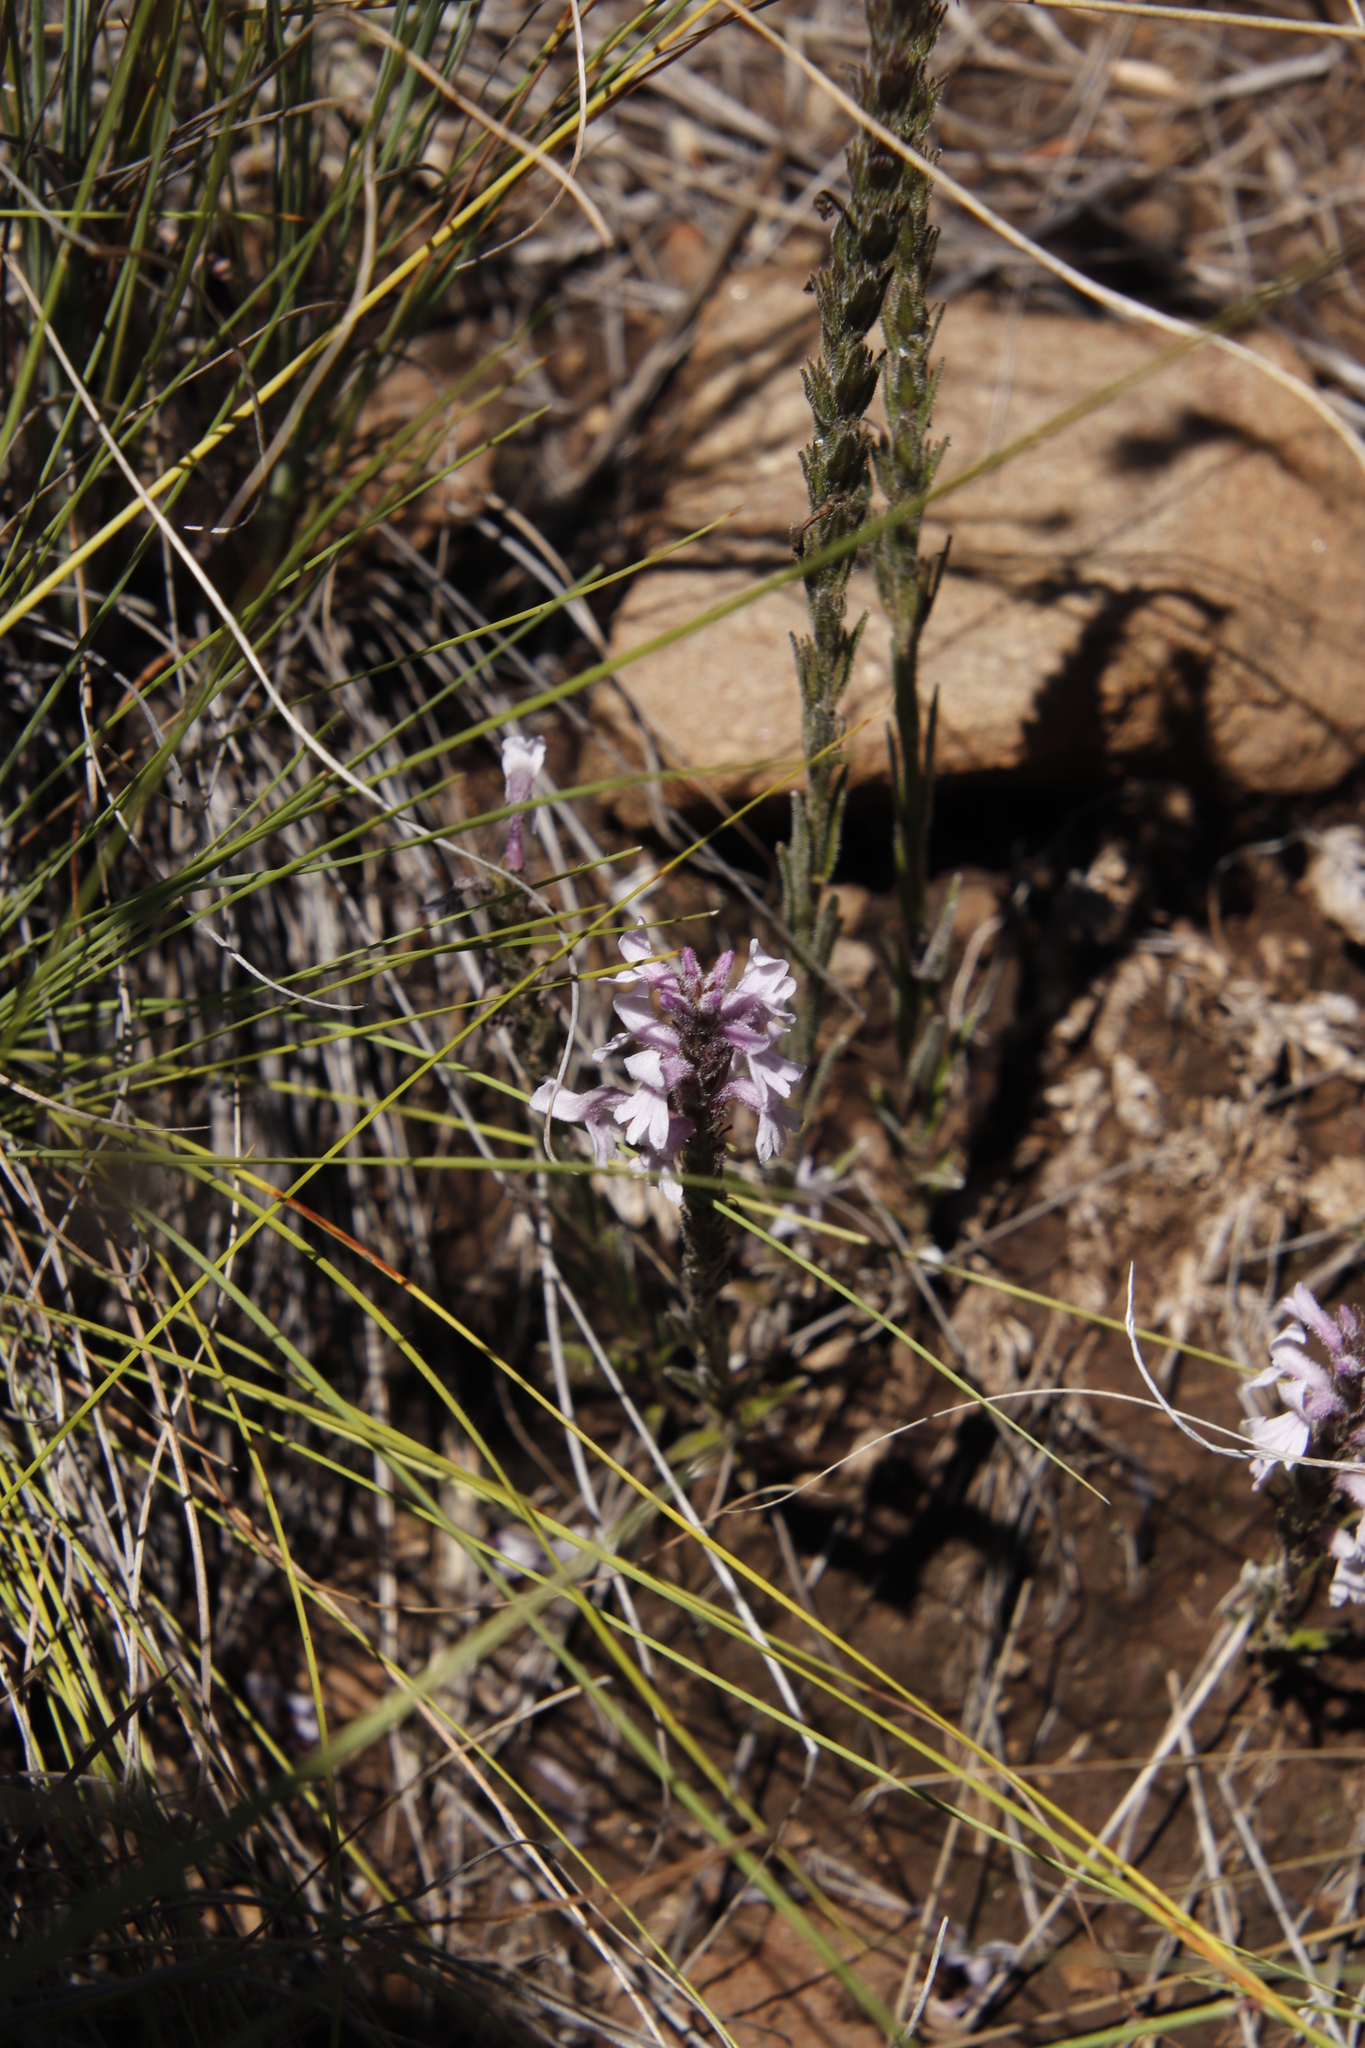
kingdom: Plantae
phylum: Tracheophyta
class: Magnoliopsida
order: Lamiales
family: Orobanchaceae
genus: Striga
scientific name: Striga bilabiata
